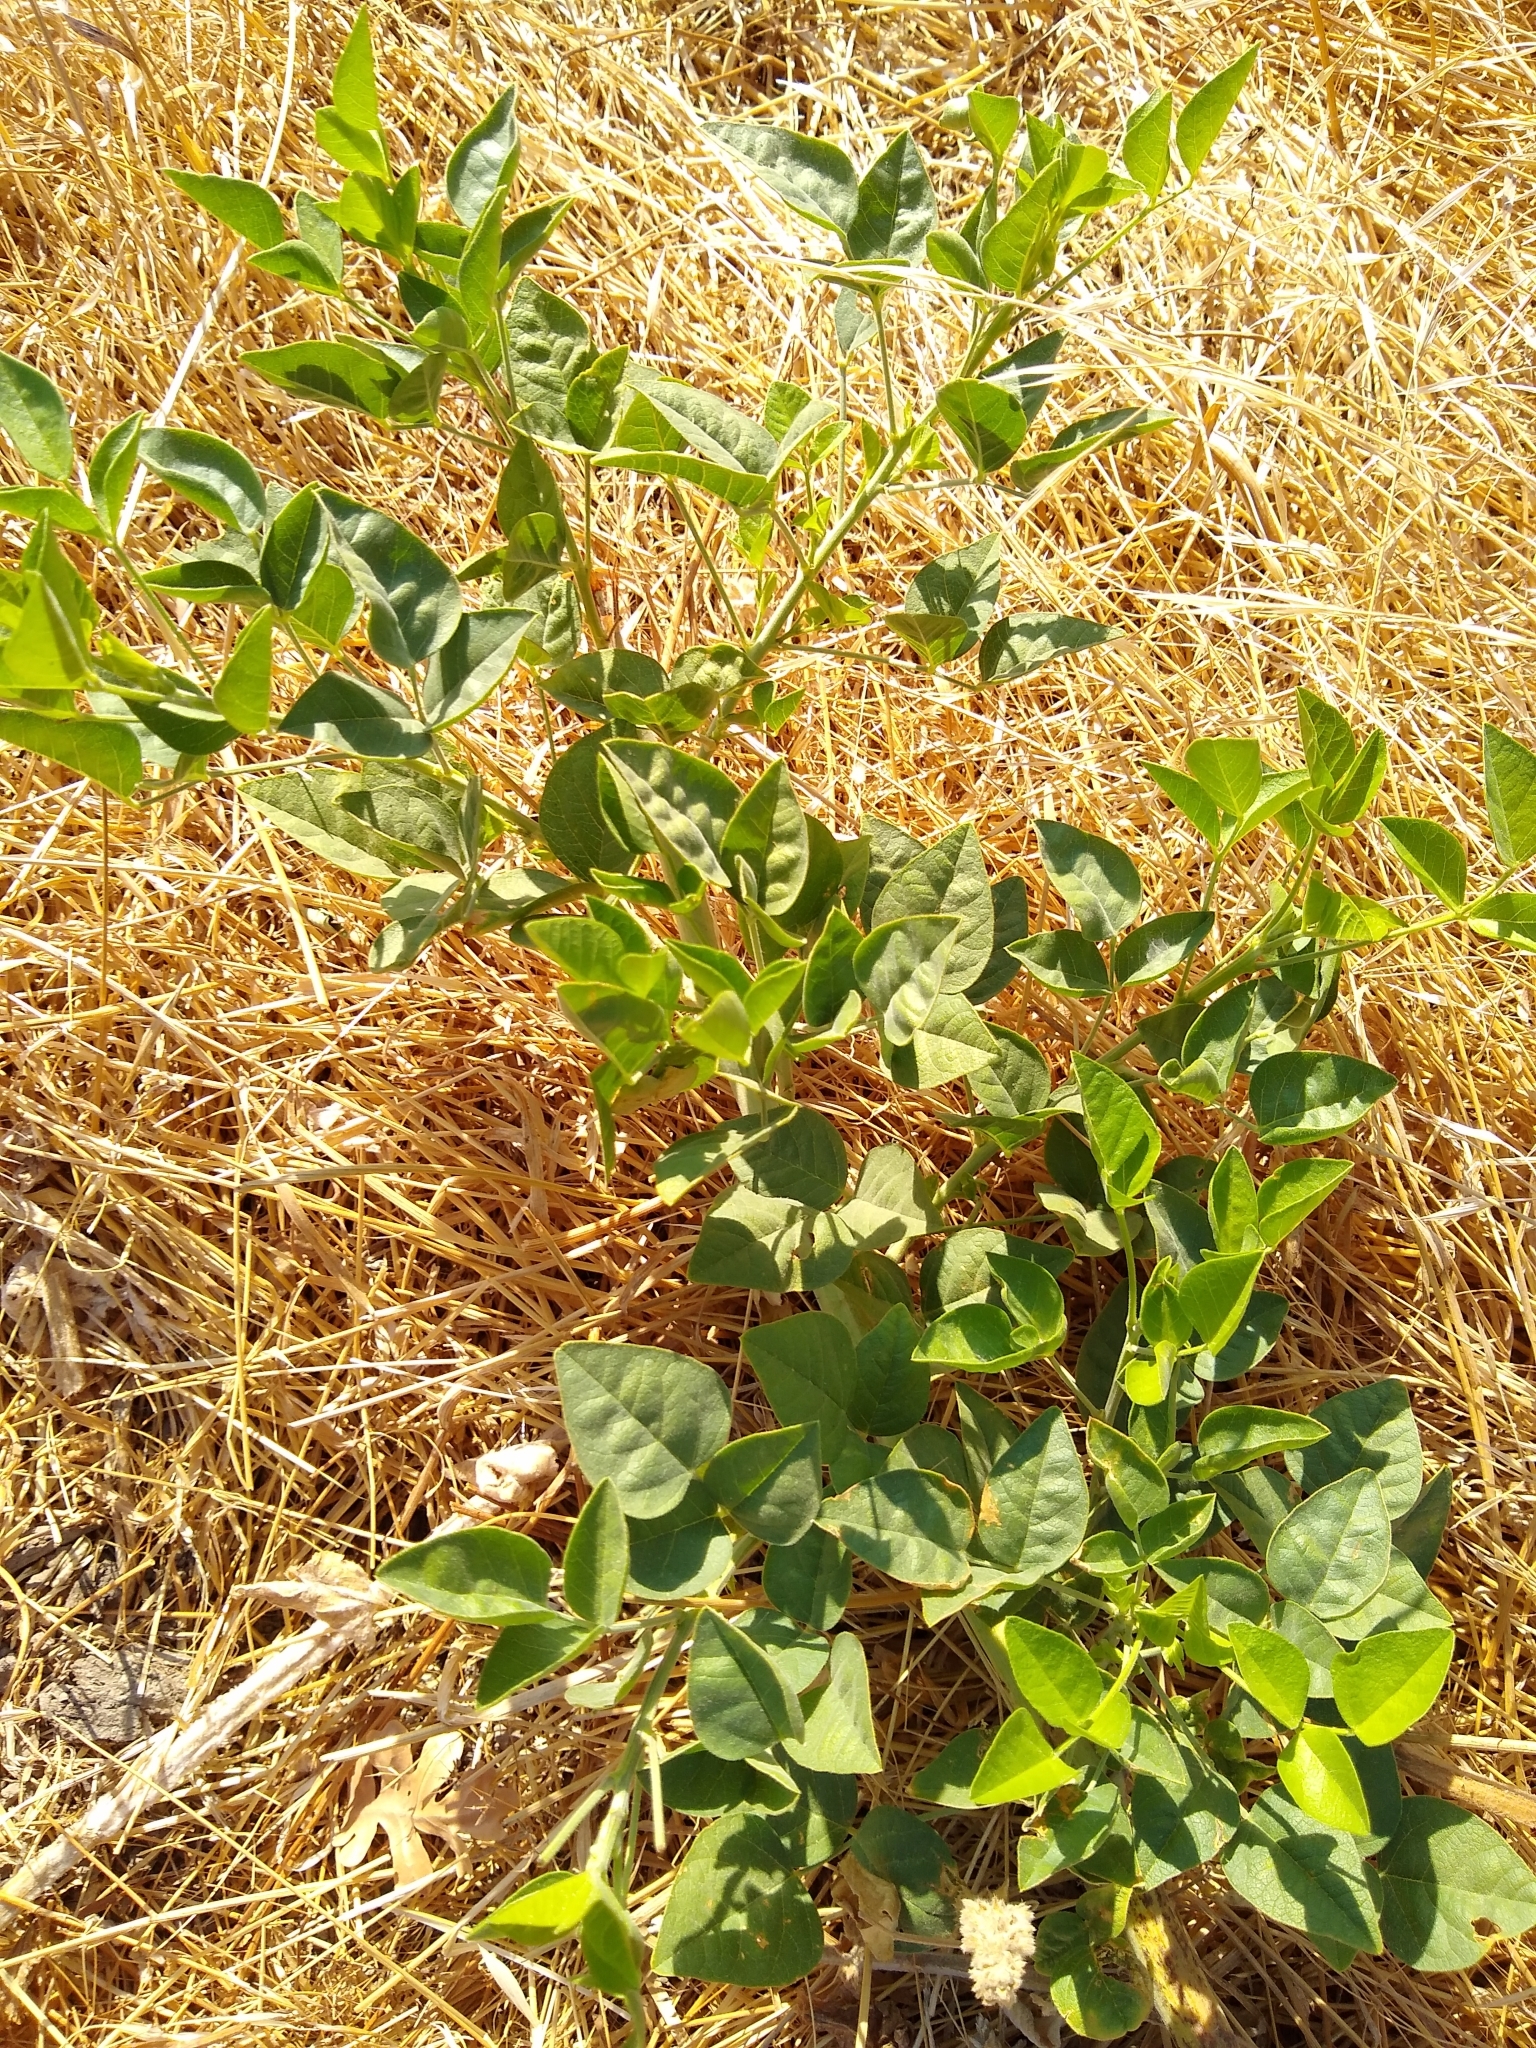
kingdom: Plantae
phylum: Tracheophyta
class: Magnoliopsida
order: Fabales
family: Fabaceae
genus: Hoita
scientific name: Hoita macrostachya
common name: Leatherroot
